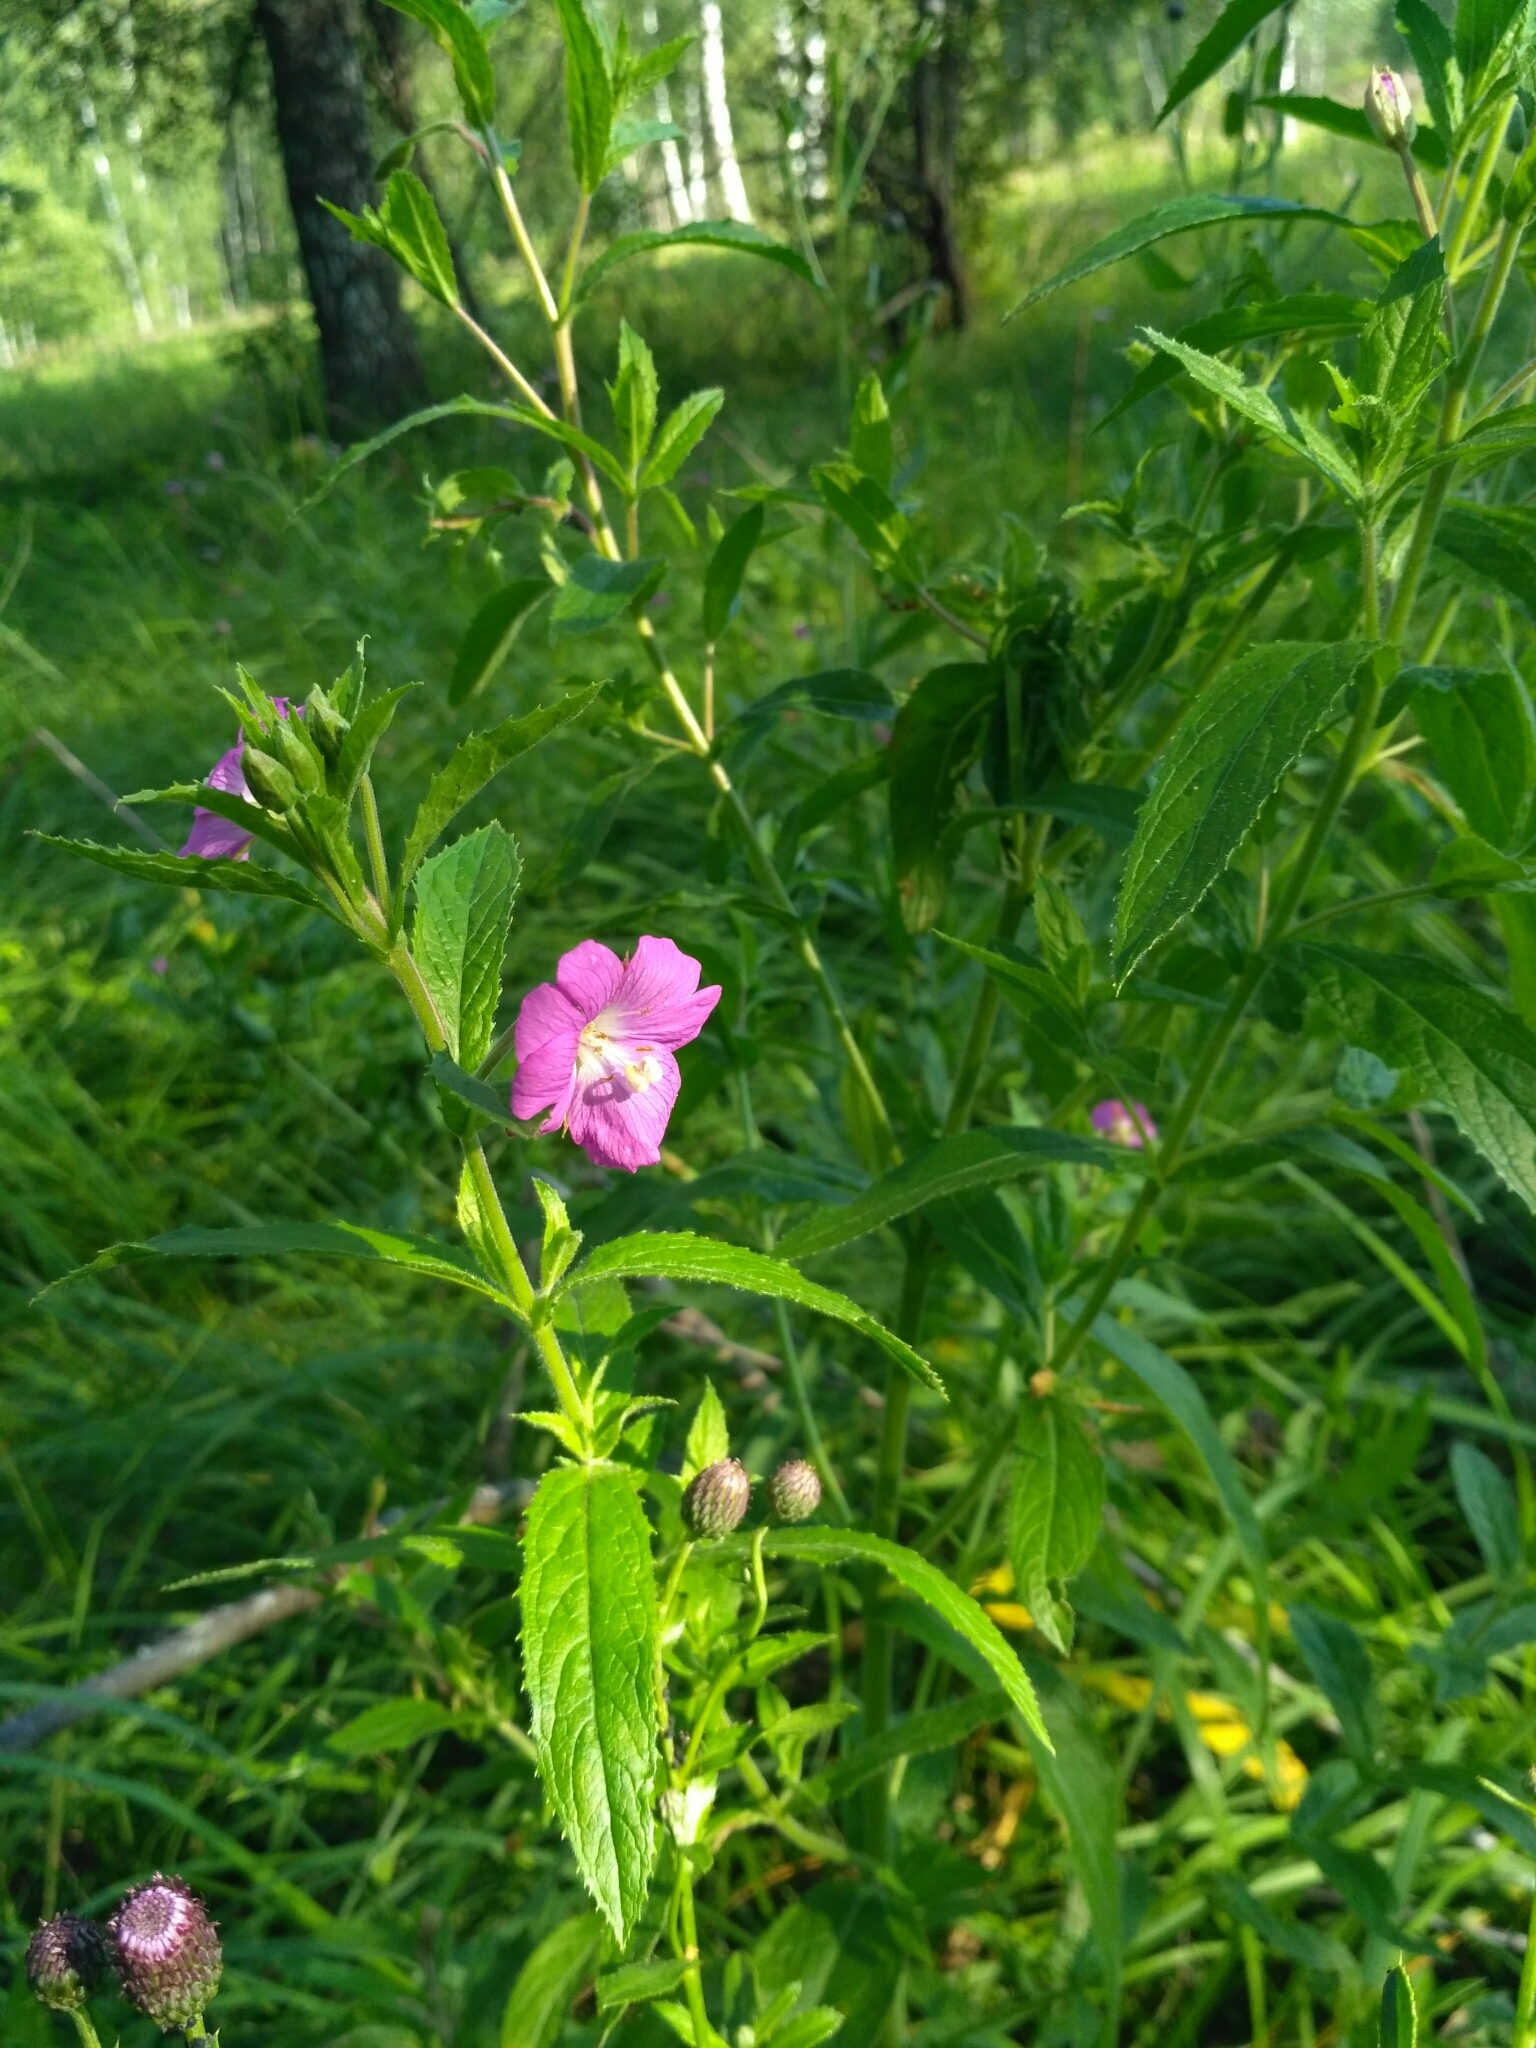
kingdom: Plantae
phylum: Tracheophyta
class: Magnoliopsida
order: Myrtales
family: Onagraceae
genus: Epilobium
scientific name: Epilobium hirsutum
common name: Great willowherb
